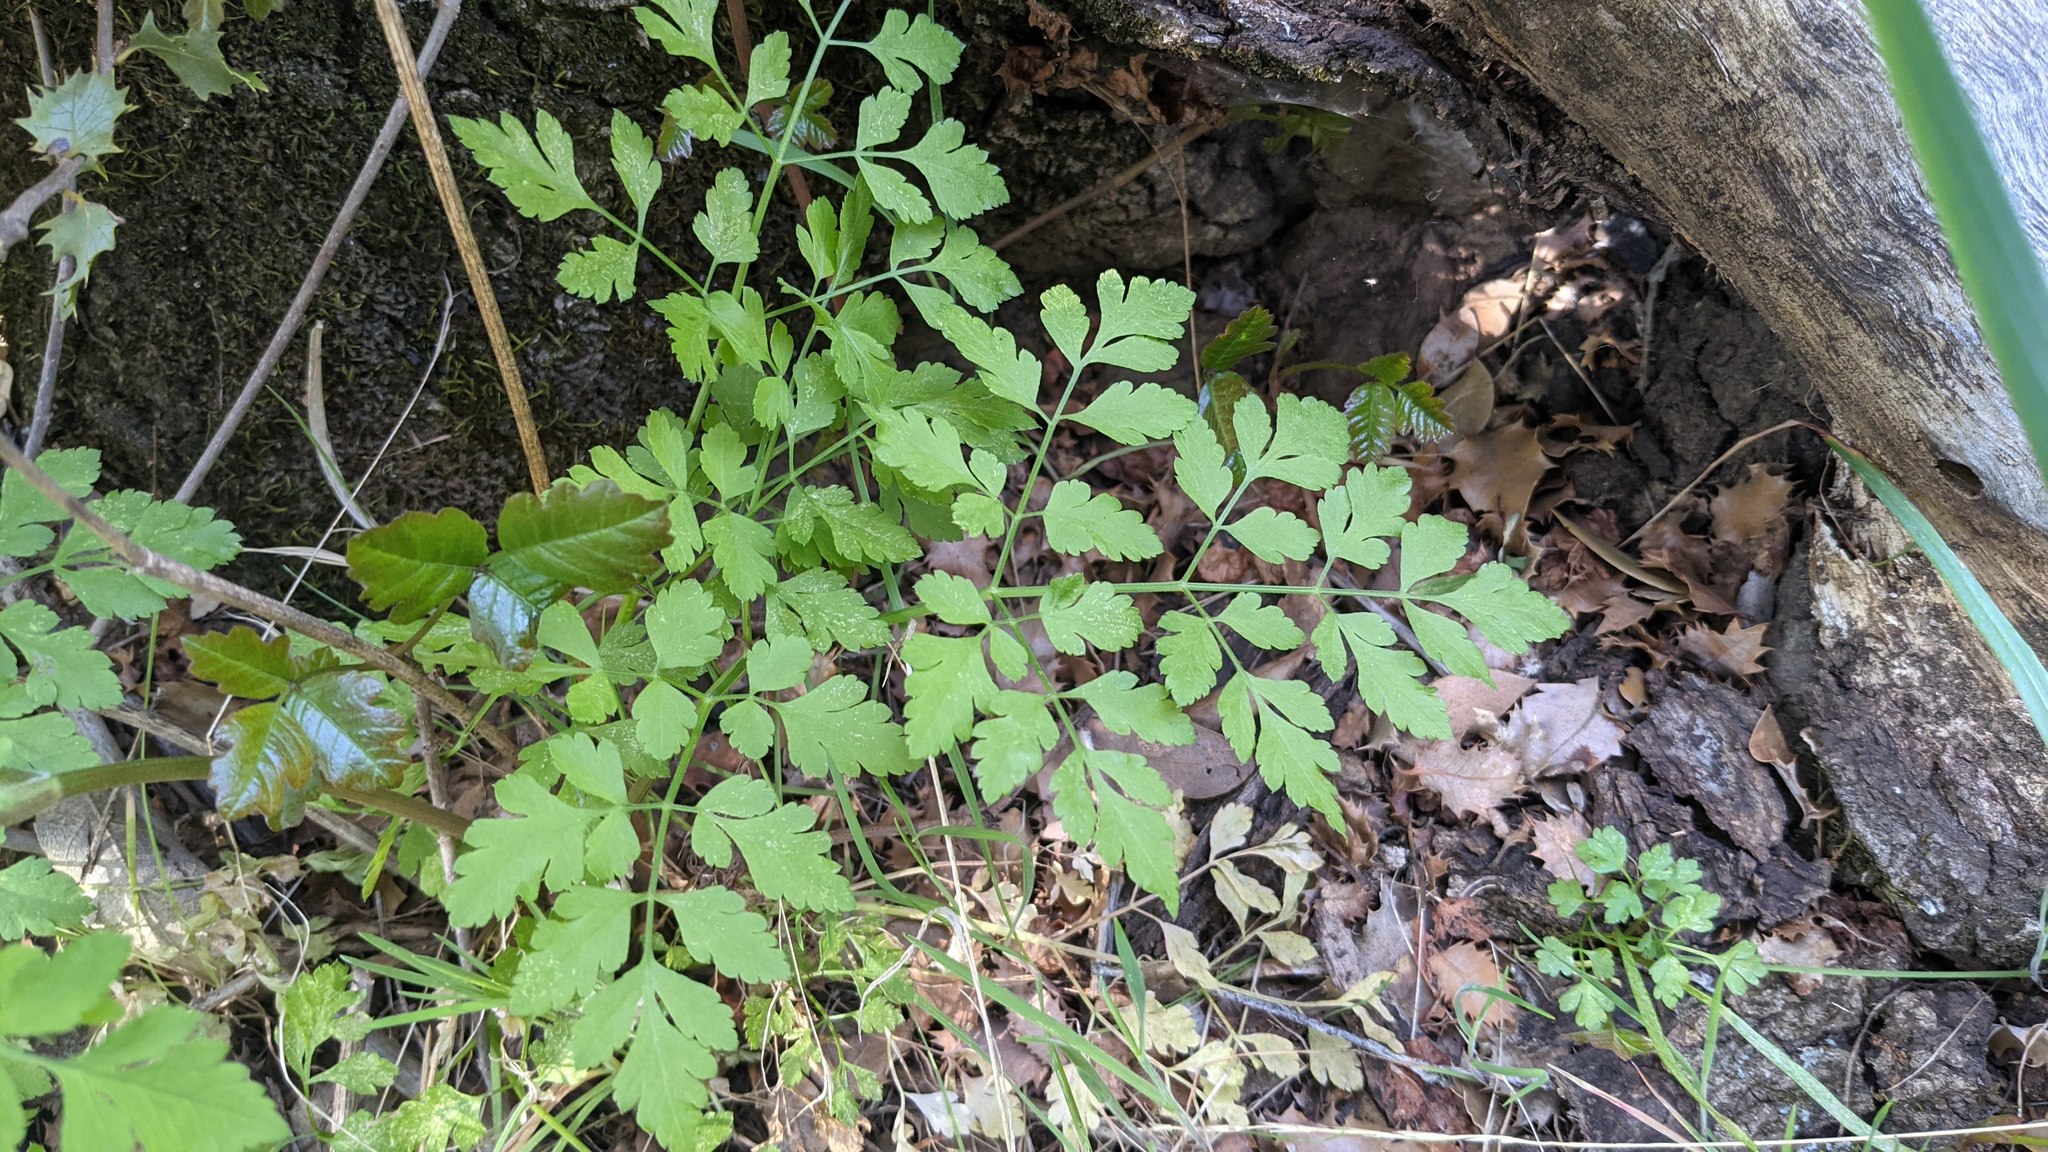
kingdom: Plantae
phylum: Tracheophyta
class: Magnoliopsida
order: Apiales
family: Apiaceae
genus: Osmorhiza
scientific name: Osmorhiza brachypoda
